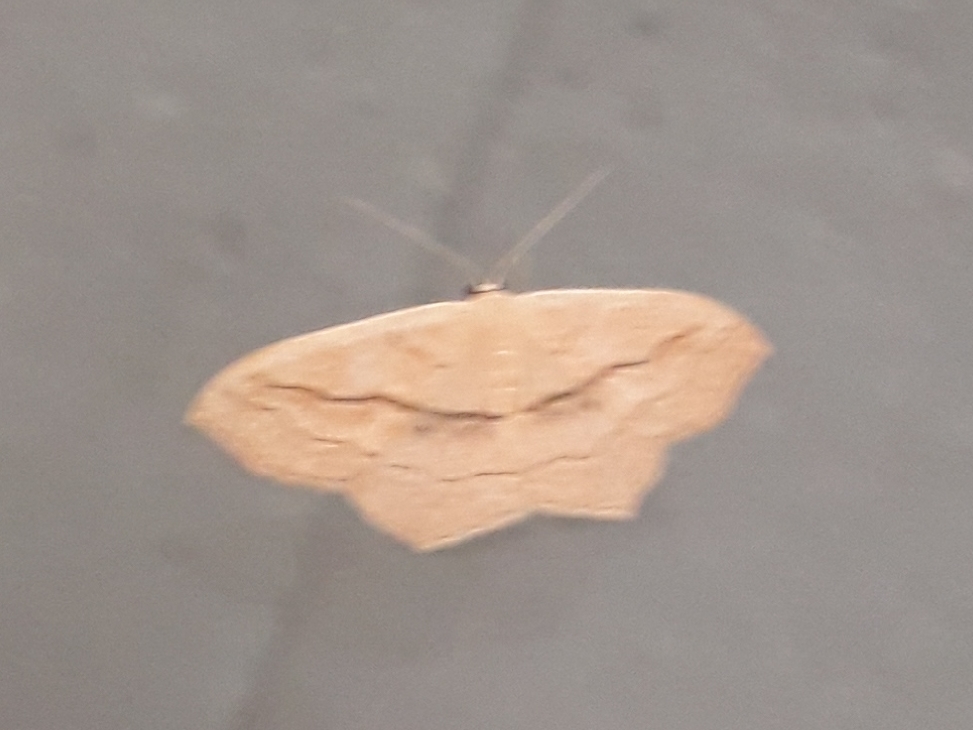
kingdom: Animalia
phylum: Arthropoda
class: Insecta
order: Lepidoptera
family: Geometridae
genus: Scopula
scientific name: Scopula imitaria
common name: Small blood-vein
